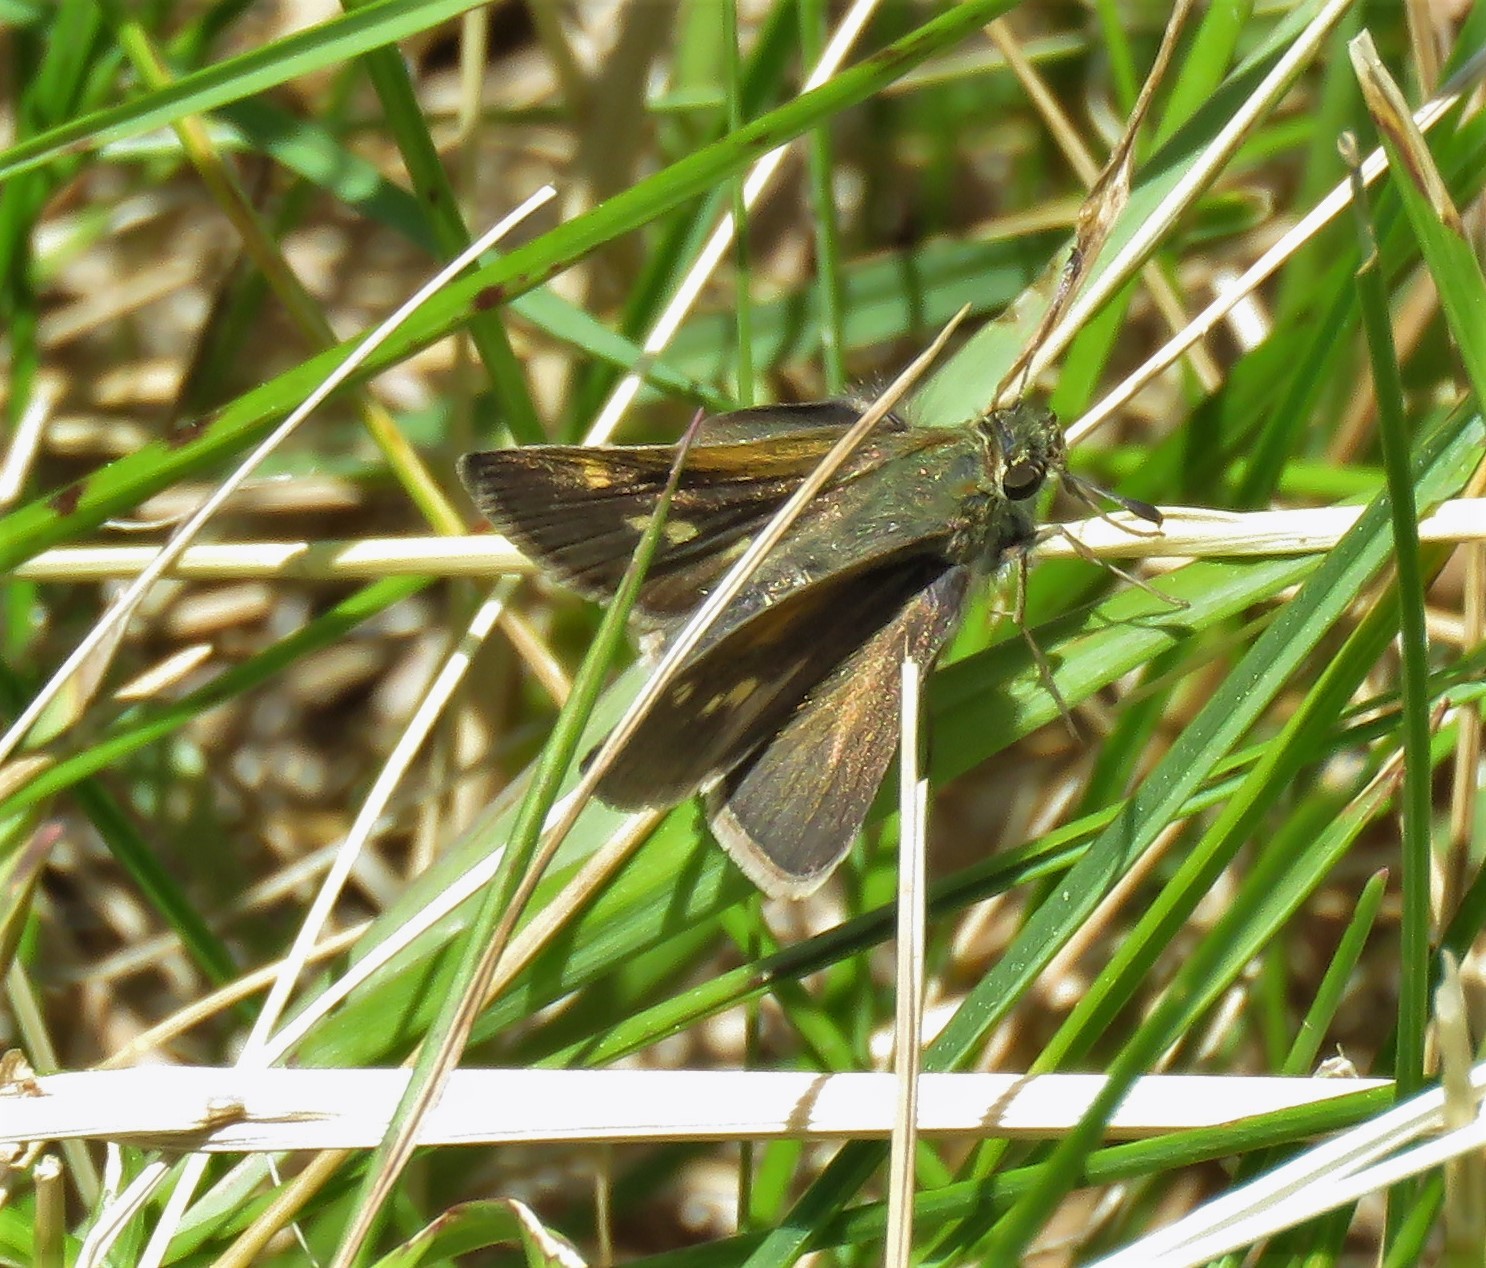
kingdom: Animalia
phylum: Arthropoda
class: Insecta
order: Lepidoptera
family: Hesperiidae
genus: Polites
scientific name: Polites themistocles
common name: Tawny-edged skipper
